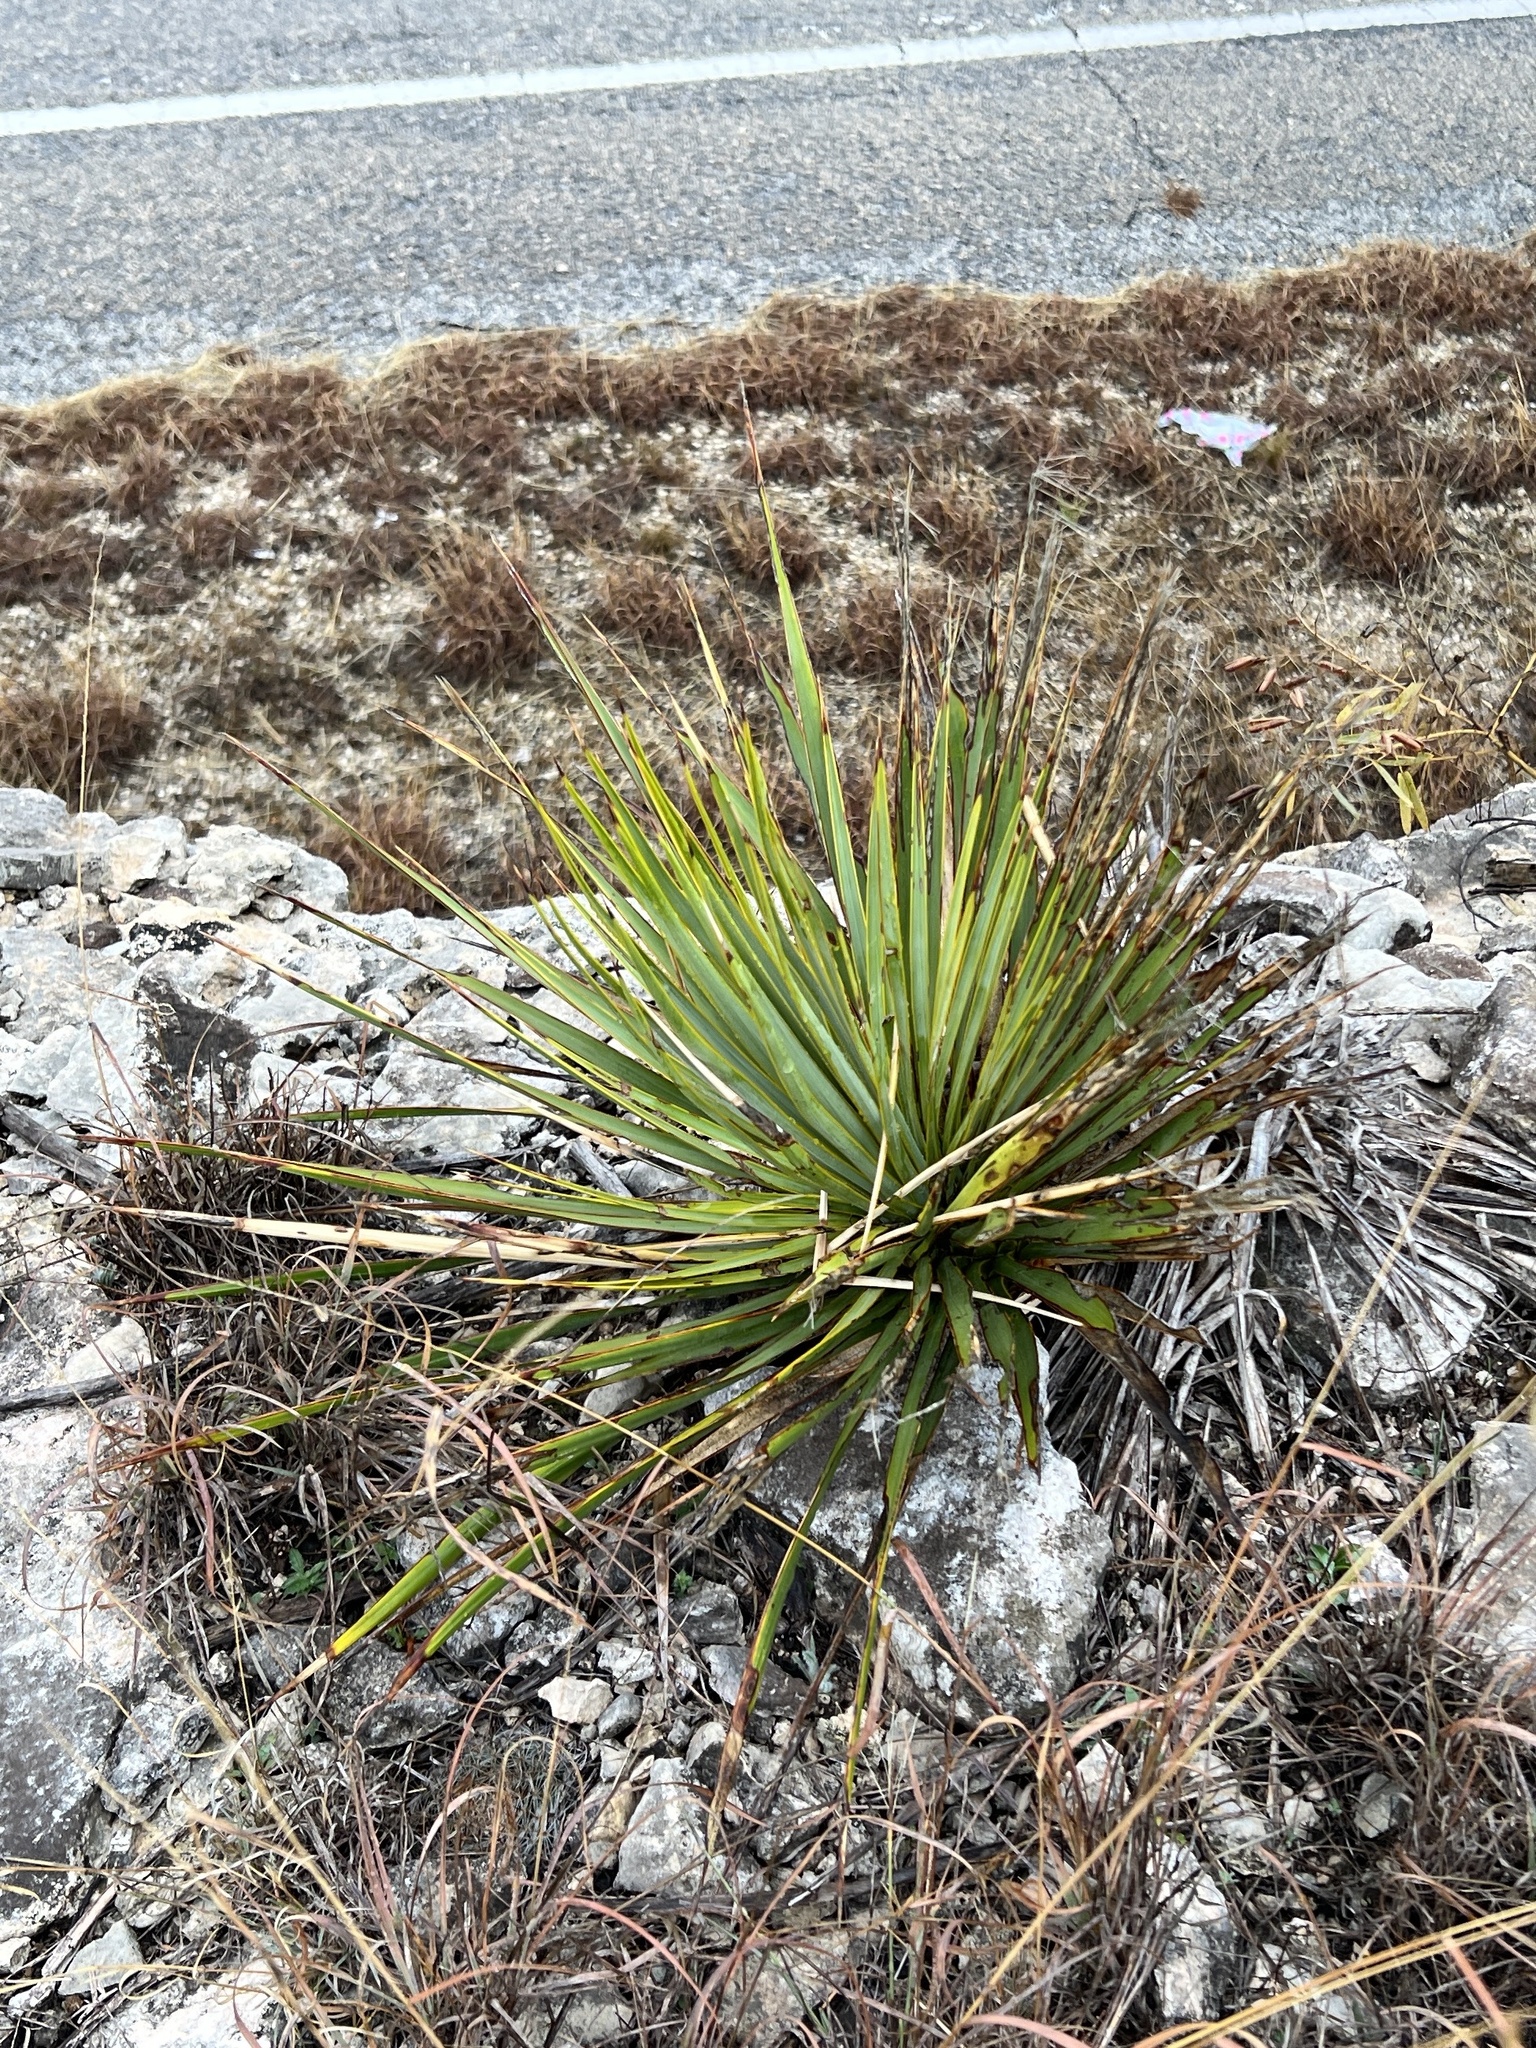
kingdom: Plantae
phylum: Tracheophyta
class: Liliopsida
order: Asparagales
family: Asparagaceae
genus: Yucca
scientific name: Yucca reverchonii
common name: San angelo yucca
